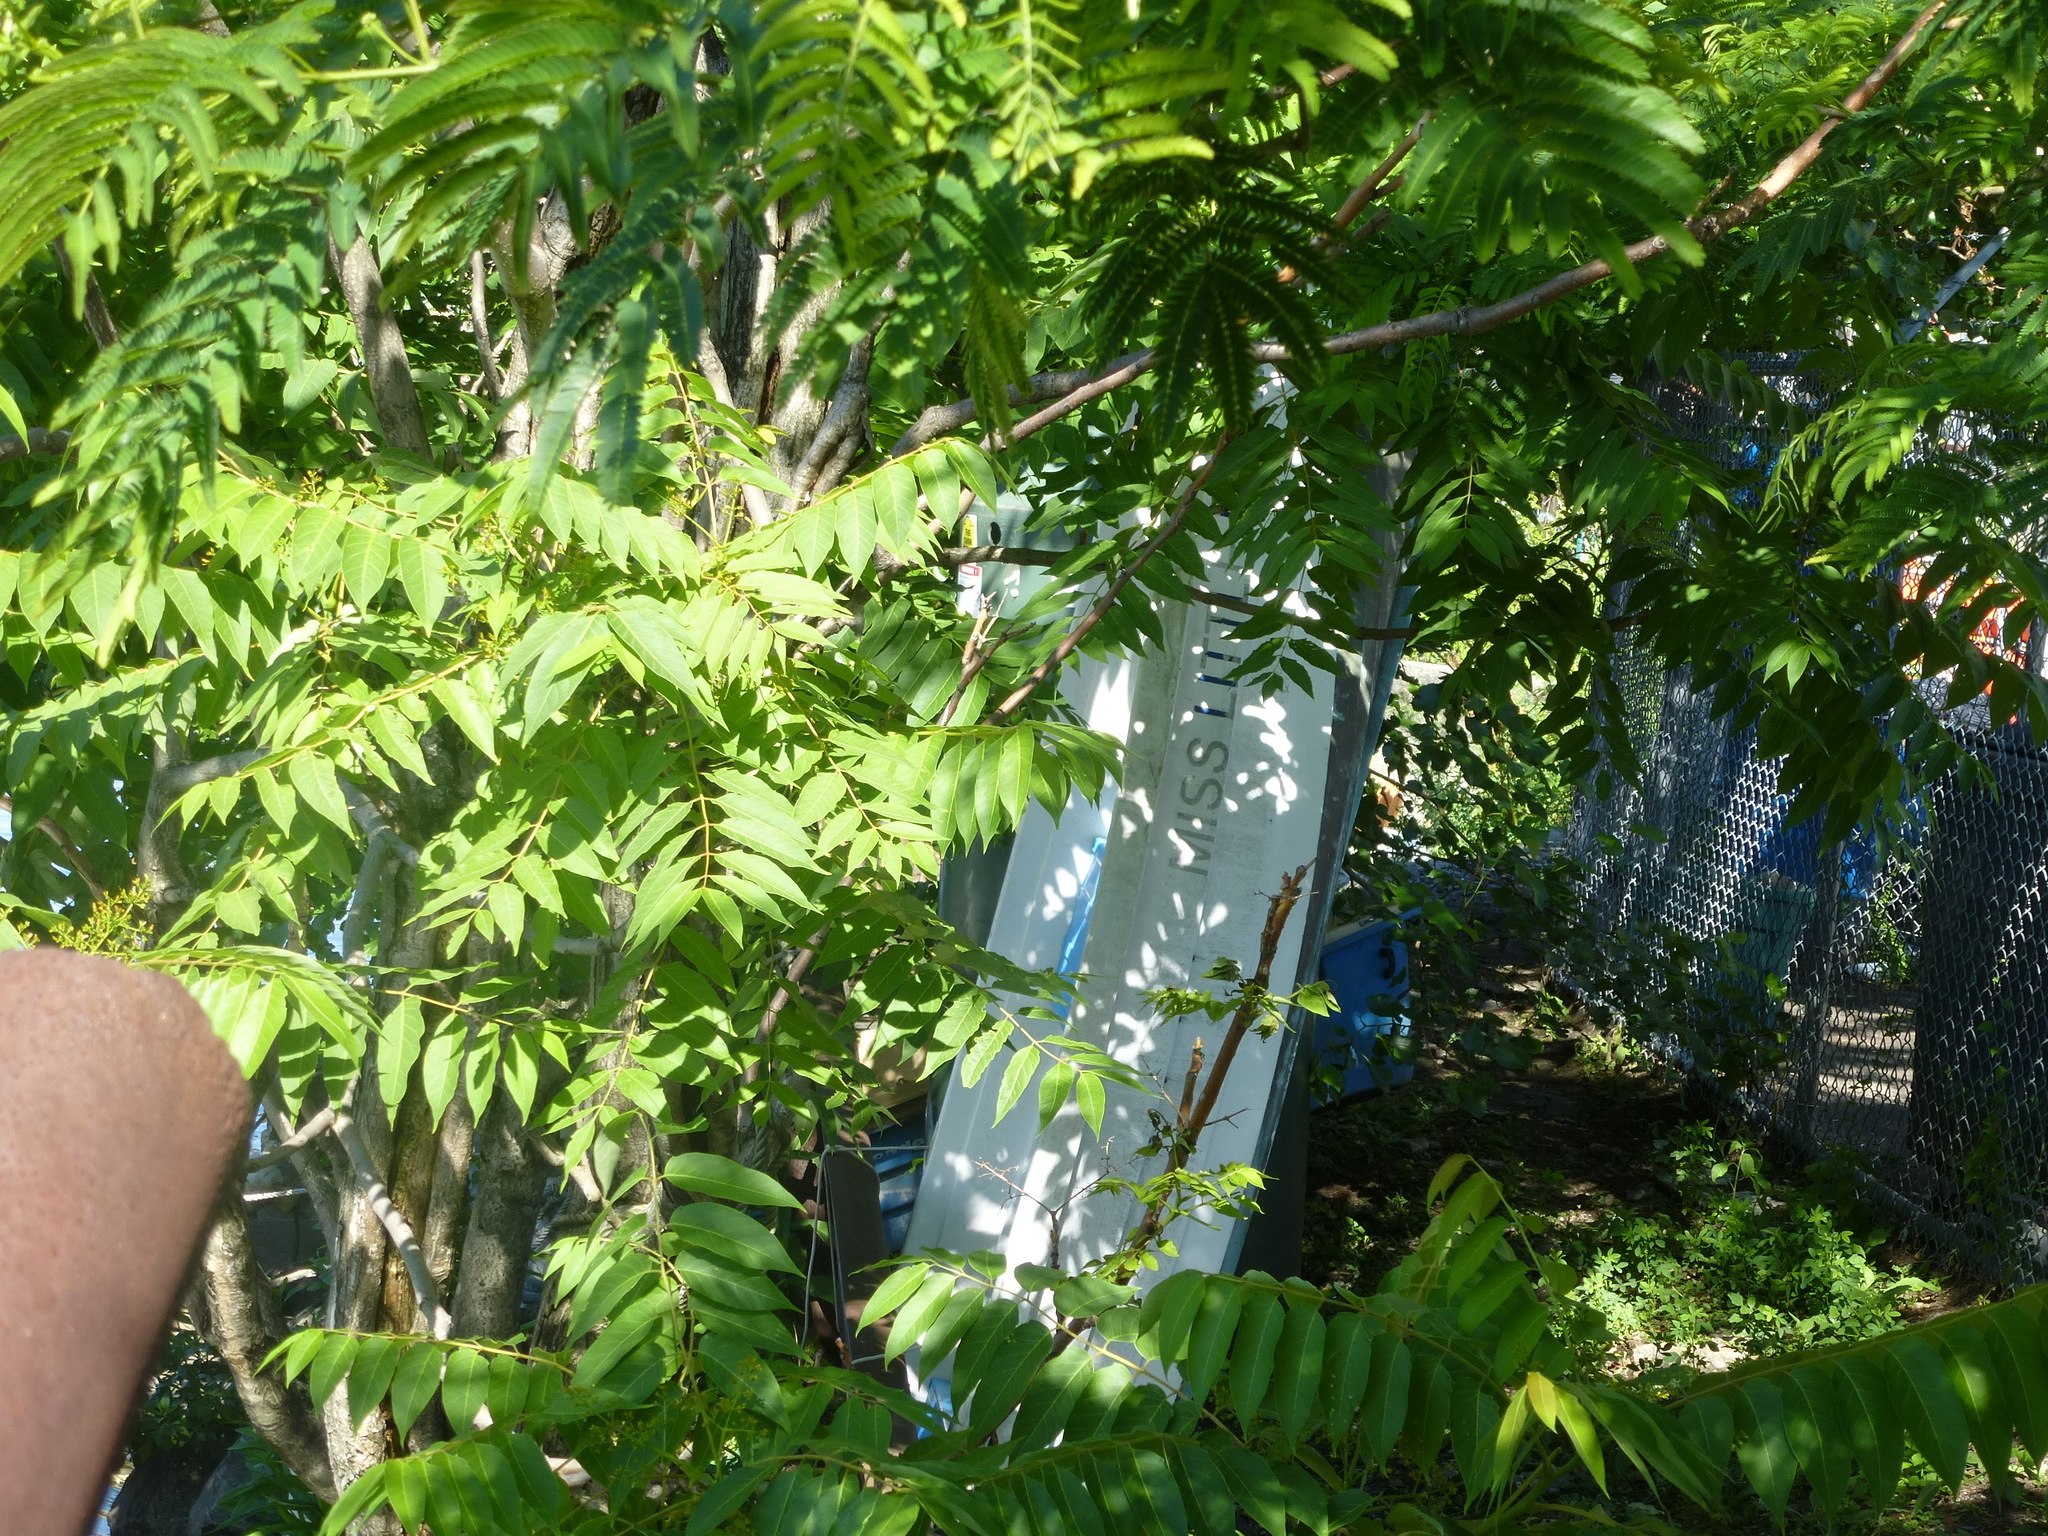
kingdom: Plantae
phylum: Tracheophyta
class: Magnoliopsida
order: Sapindales
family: Simaroubaceae
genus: Ailanthus
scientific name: Ailanthus altissima
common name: Tree-of-heaven
